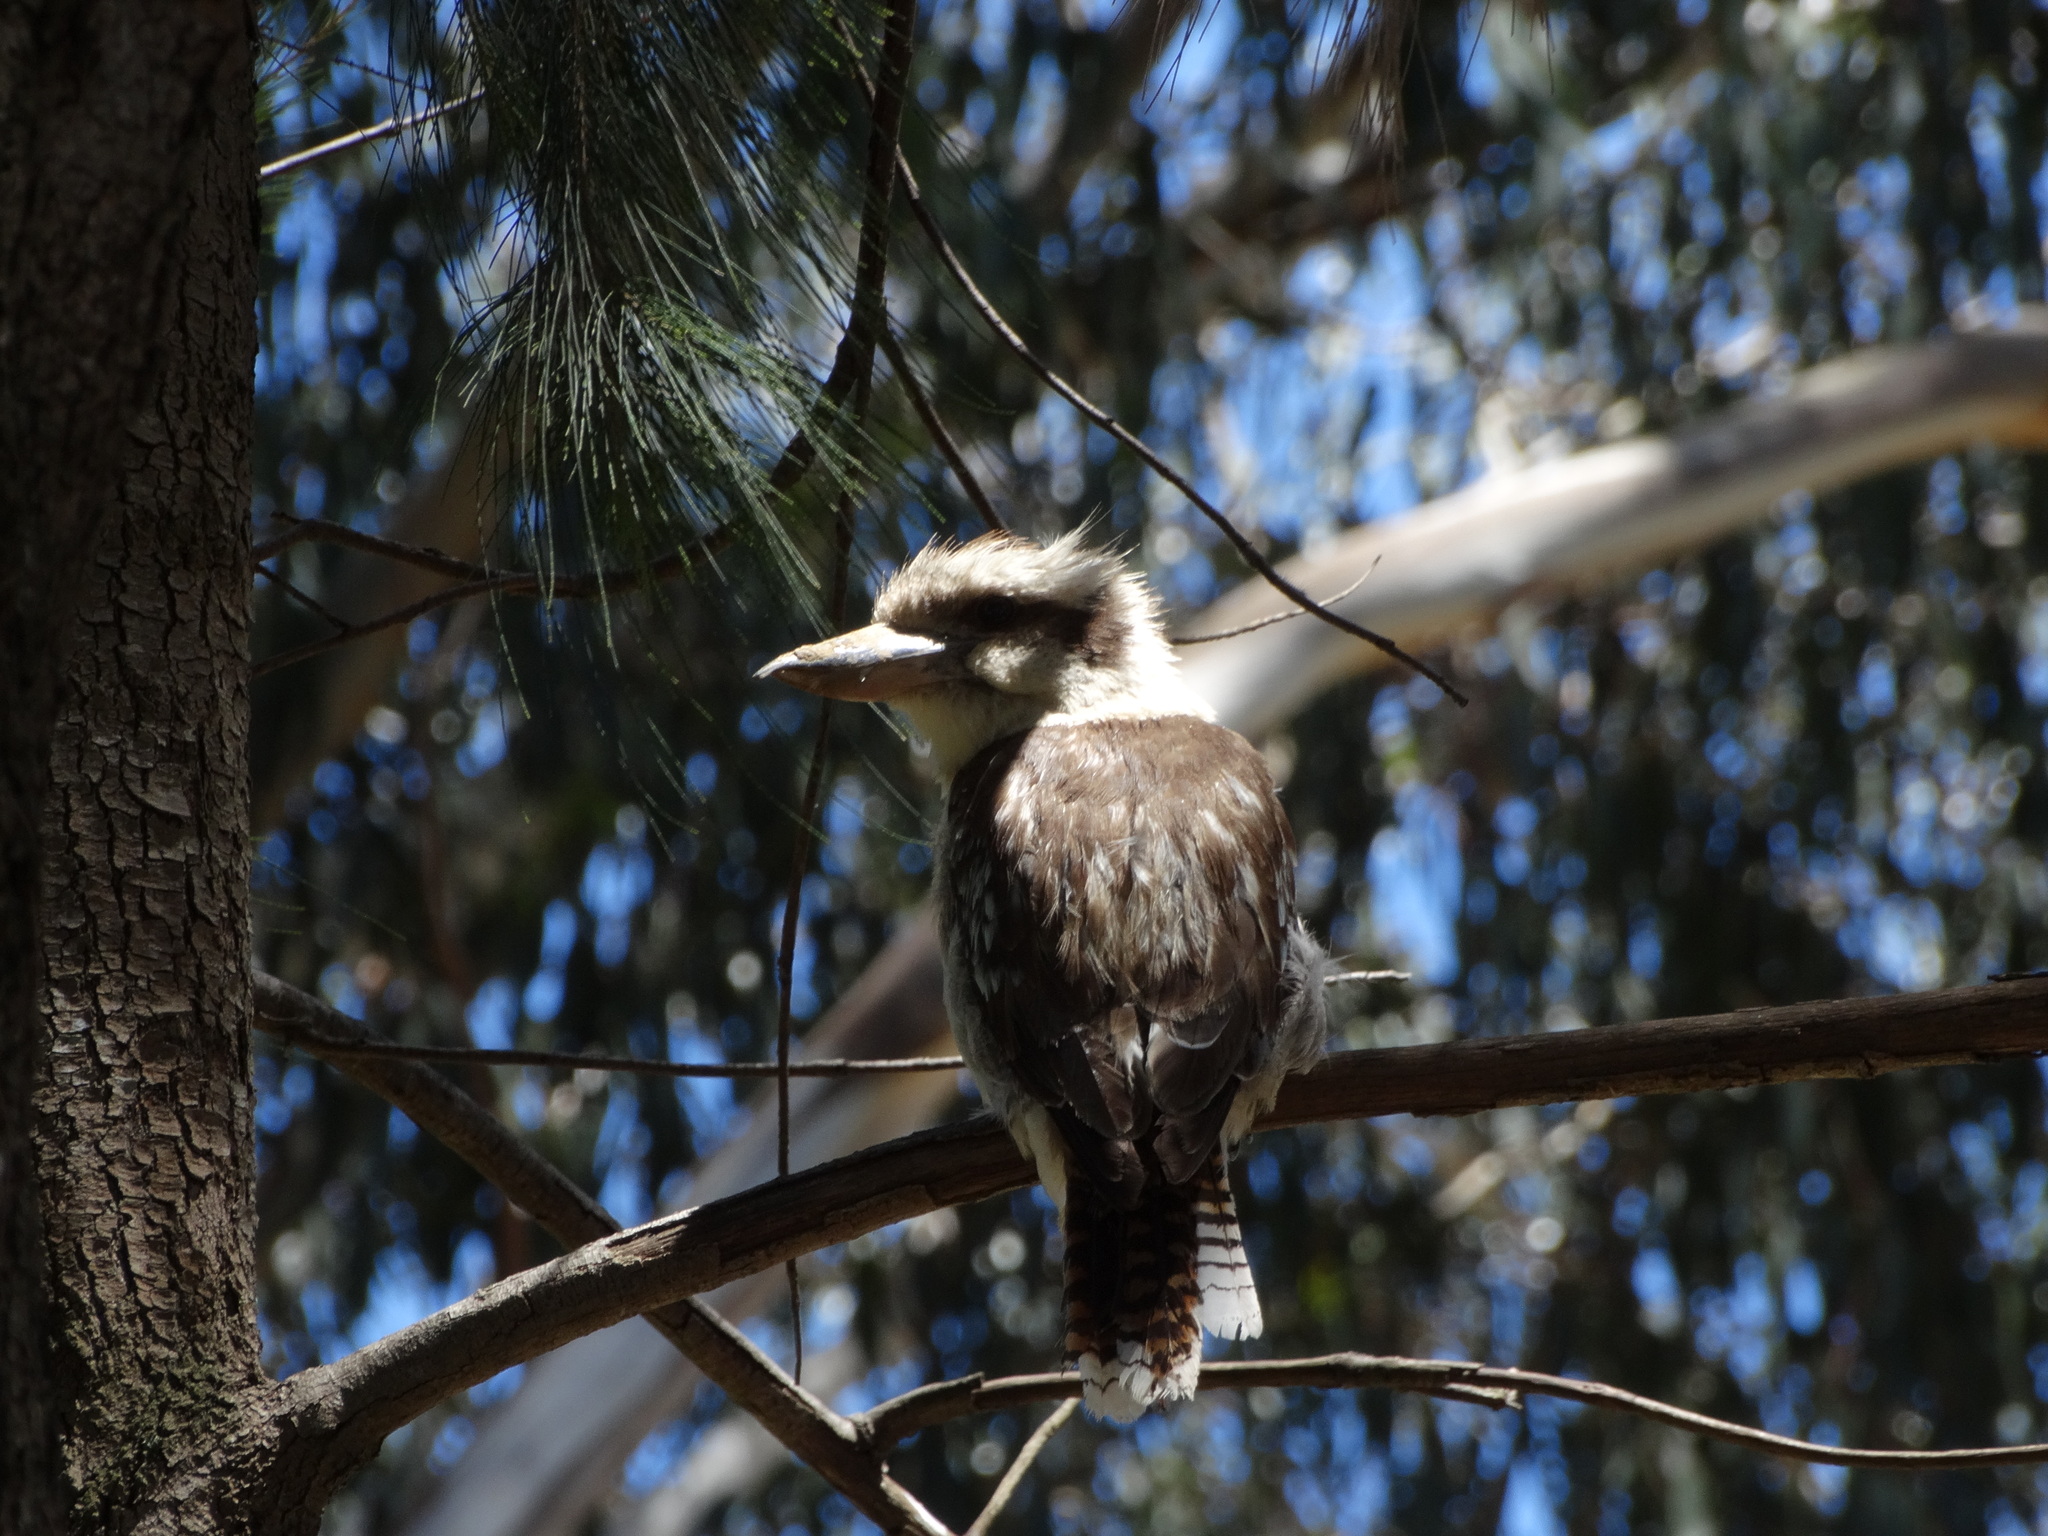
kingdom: Animalia
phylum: Chordata
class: Aves
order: Coraciiformes
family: Alcedinidae
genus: Dacelo
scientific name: Dacelo novaeguineae
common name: Laughing kookaburra
